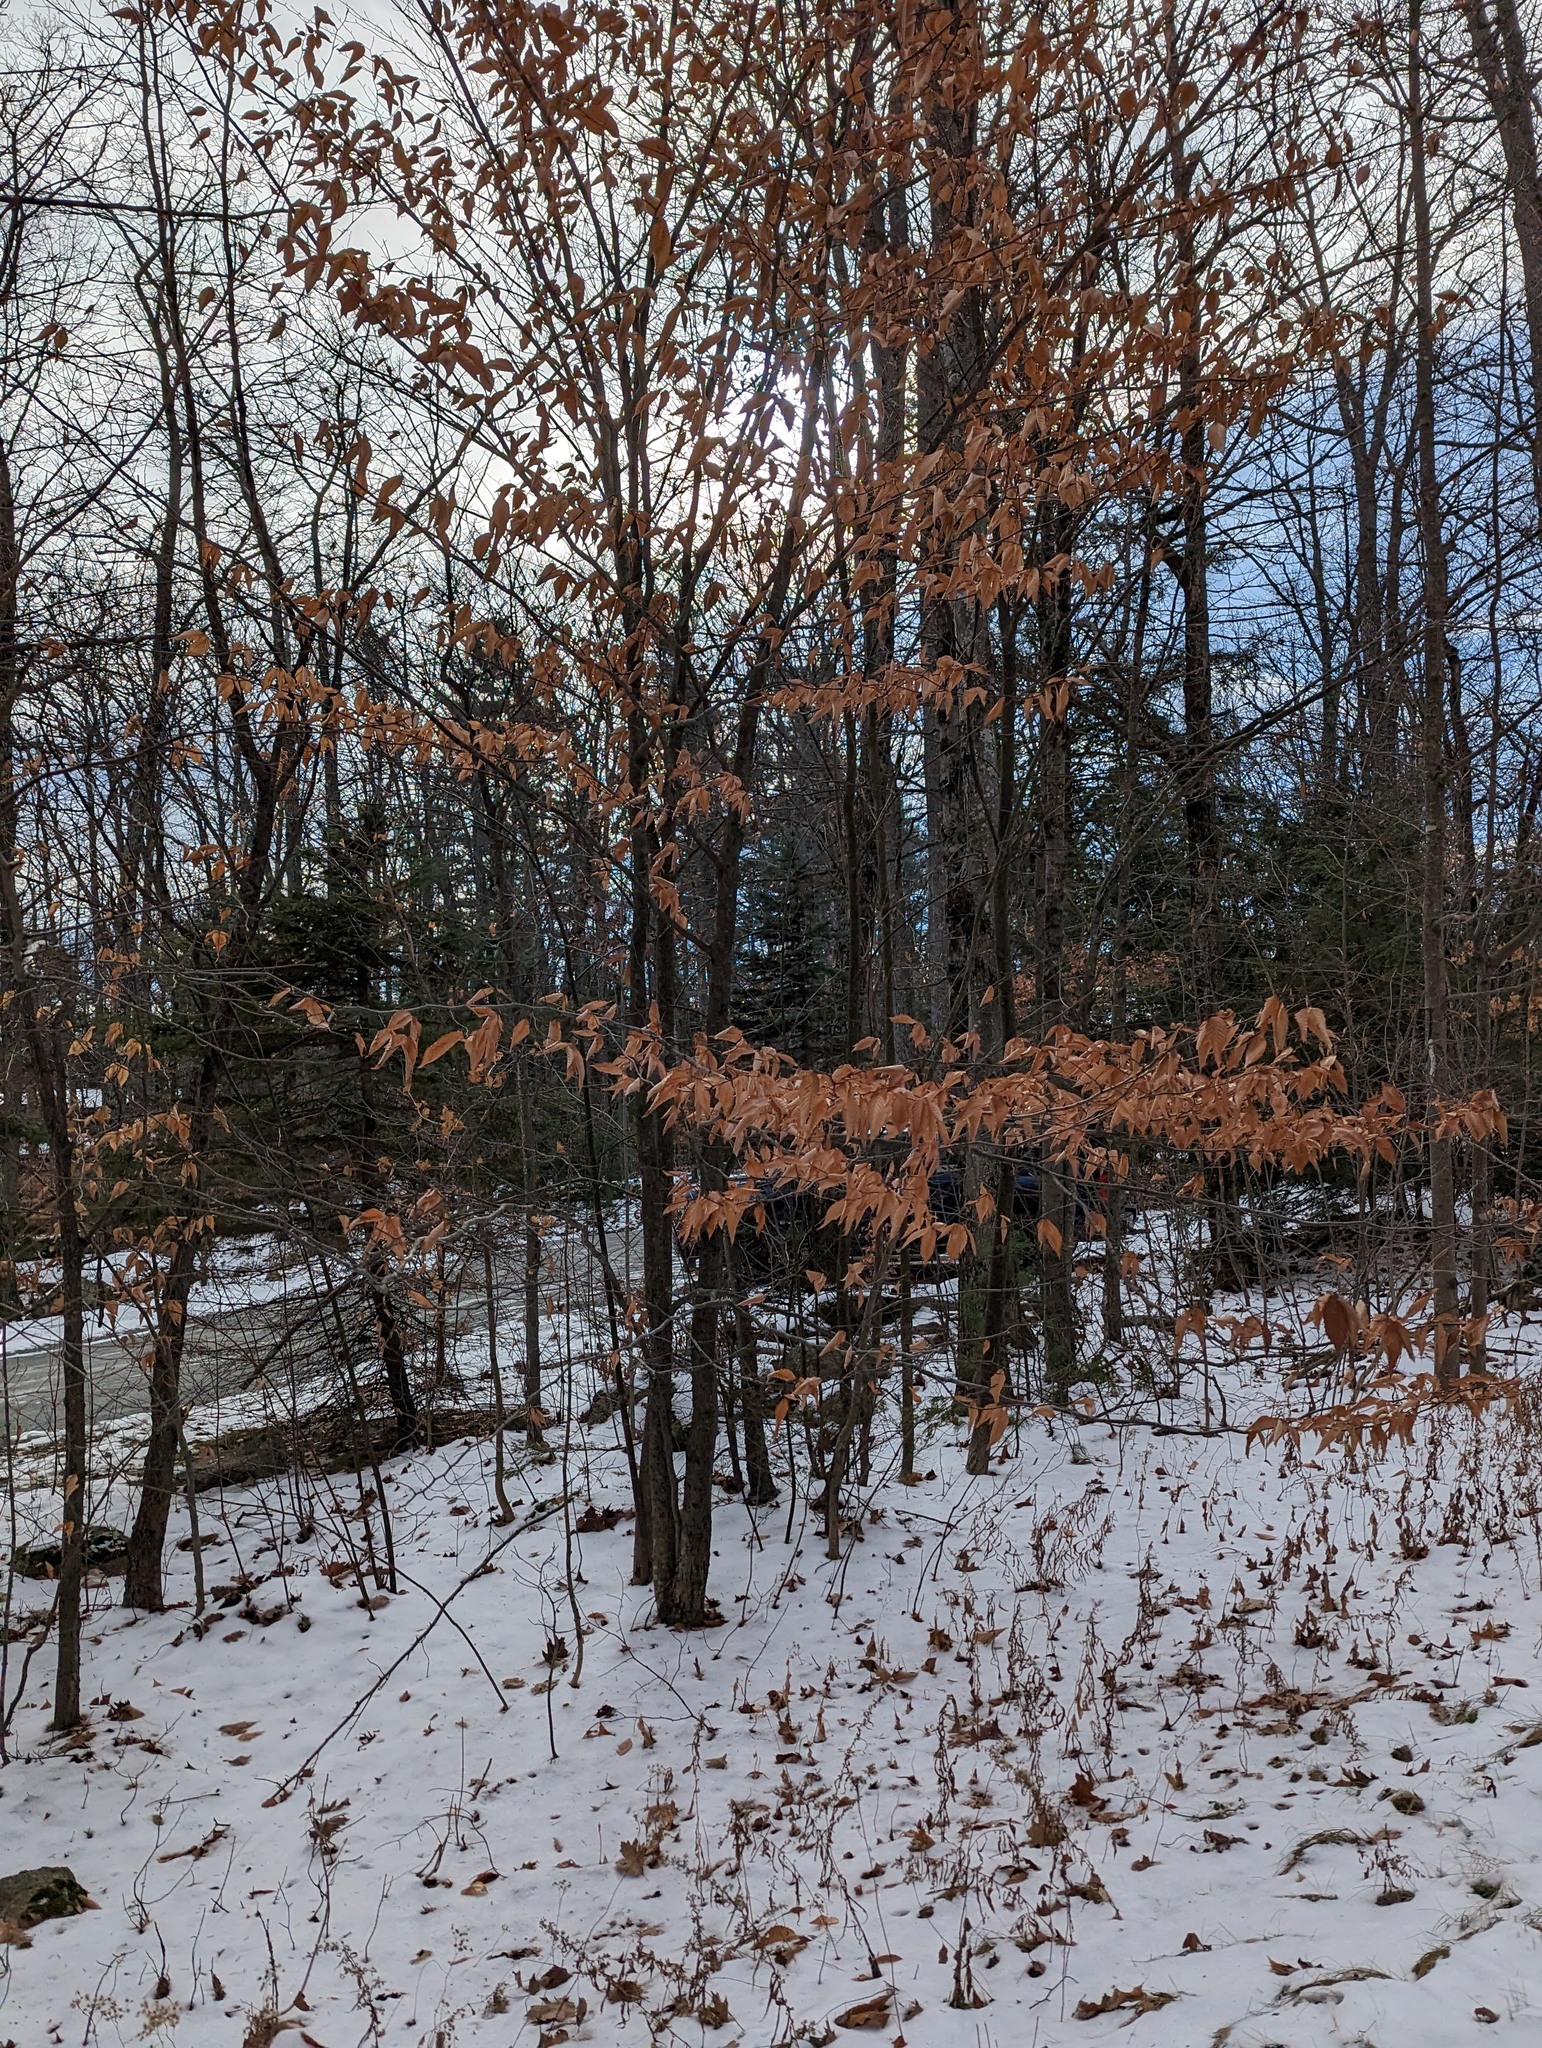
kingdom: Plantae
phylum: Tracheophyta
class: Magnoliopsida
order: Fagales
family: Fagaceae
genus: Fagus
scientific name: Fagus grandifolia
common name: American beech
